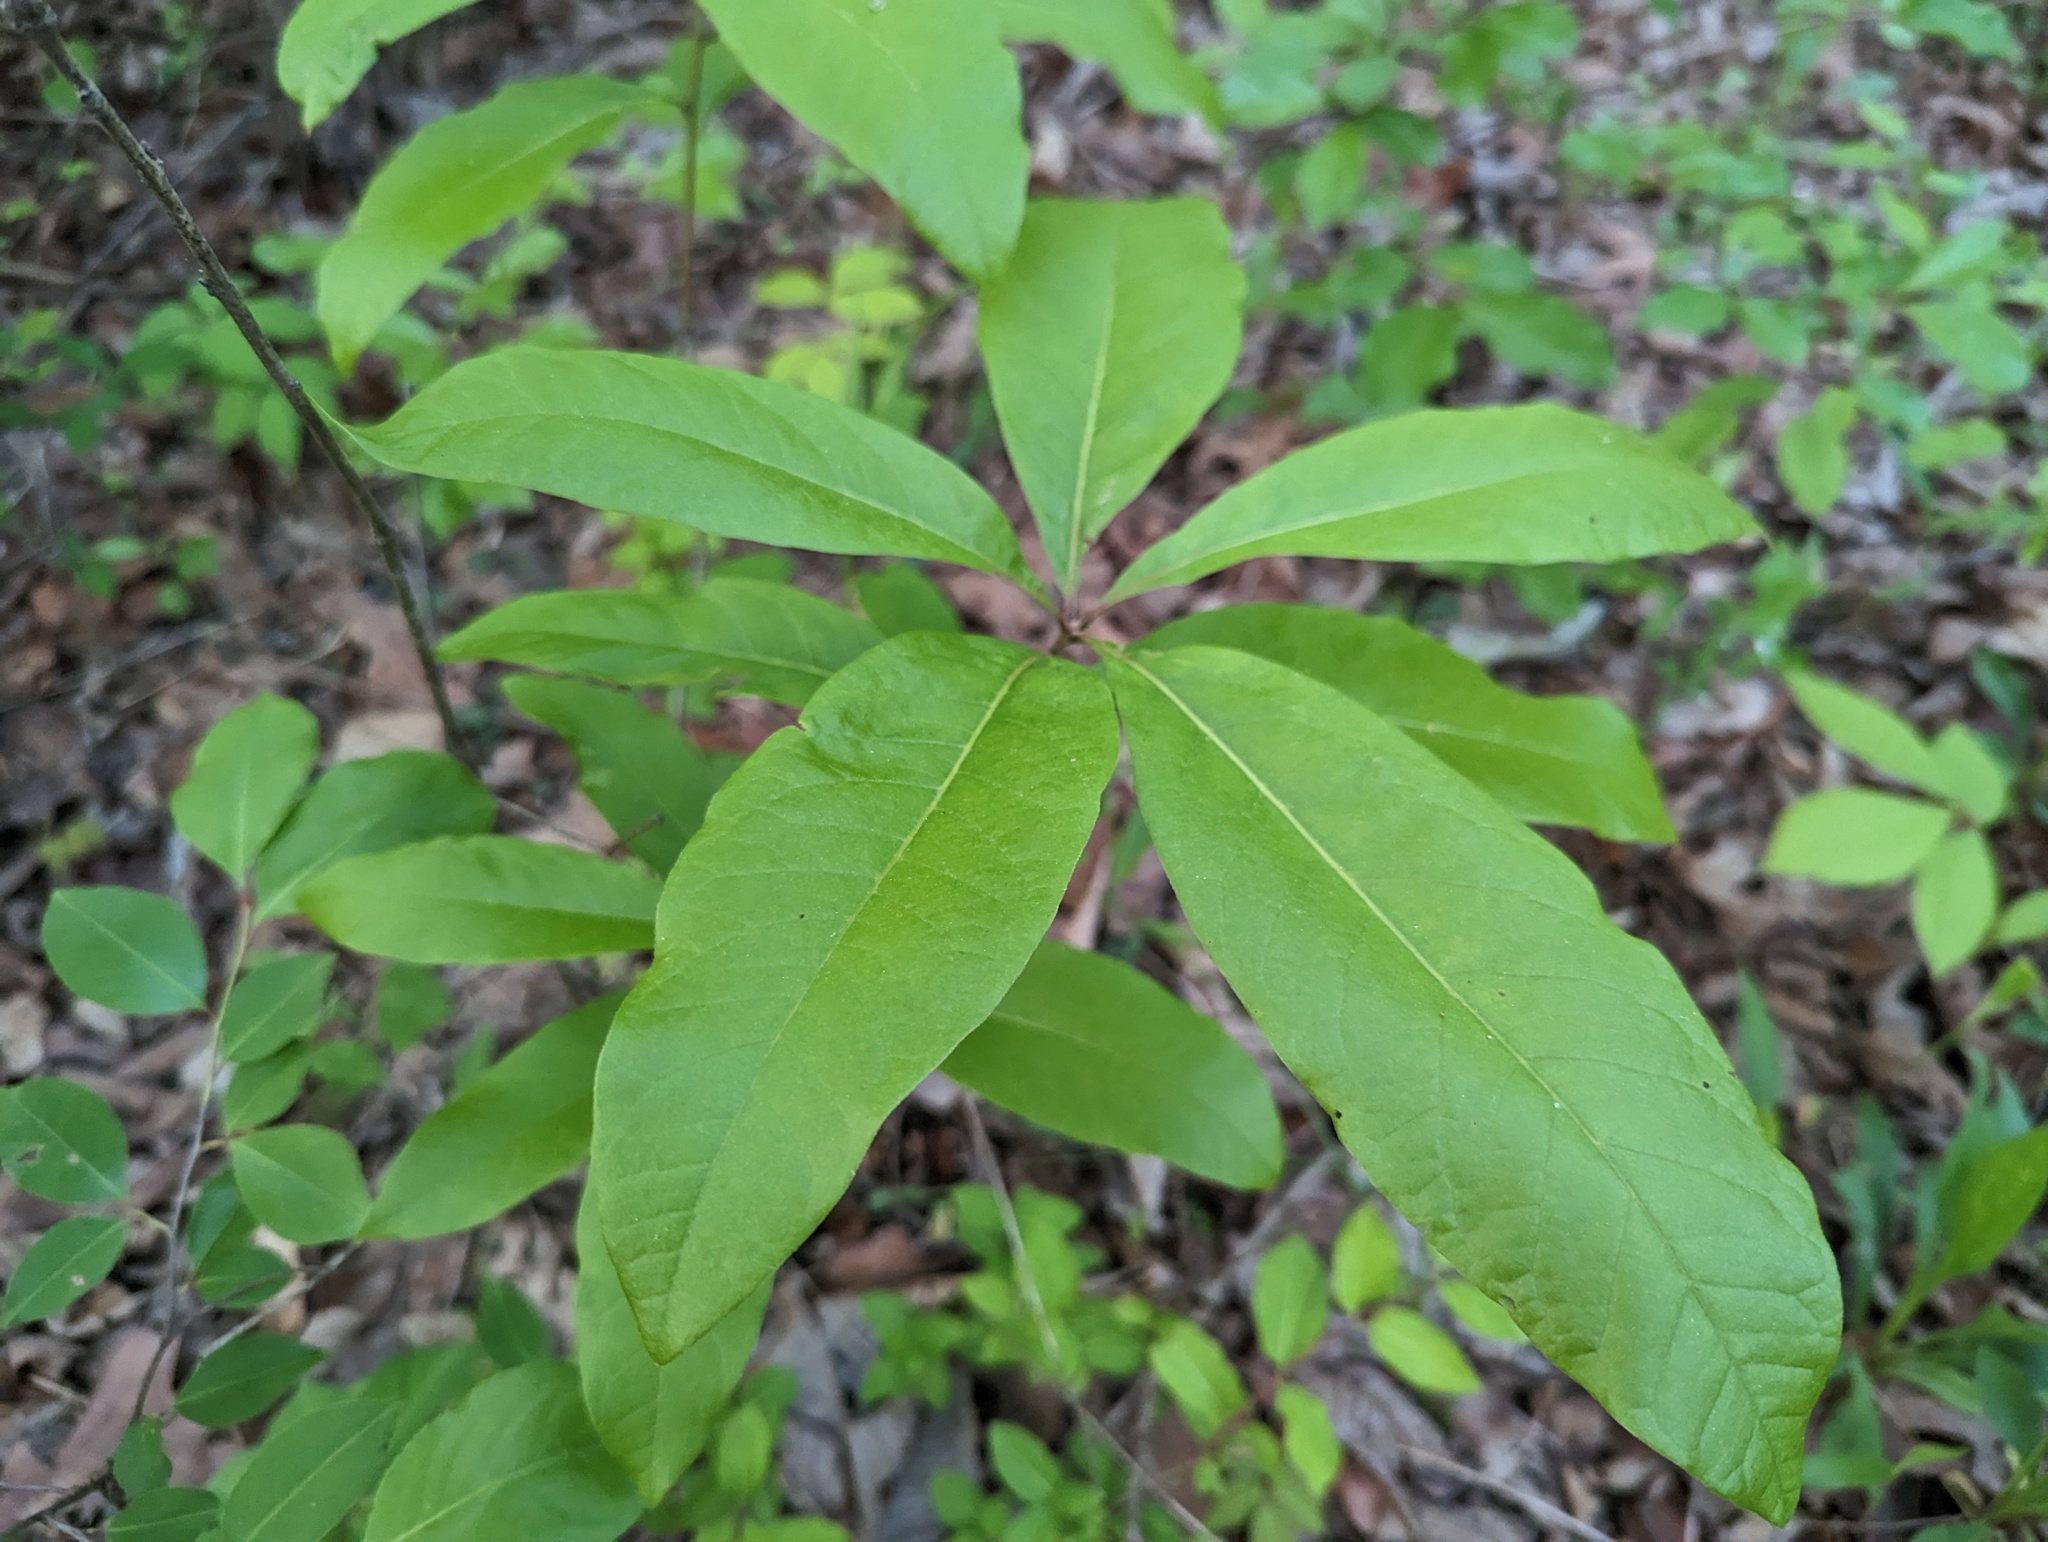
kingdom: Plantae
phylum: Tracheophyta
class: Magnoliopsida
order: Fagales
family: Fagaceae
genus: Quercus
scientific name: Quercus imbricaria
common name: Shingle oak
